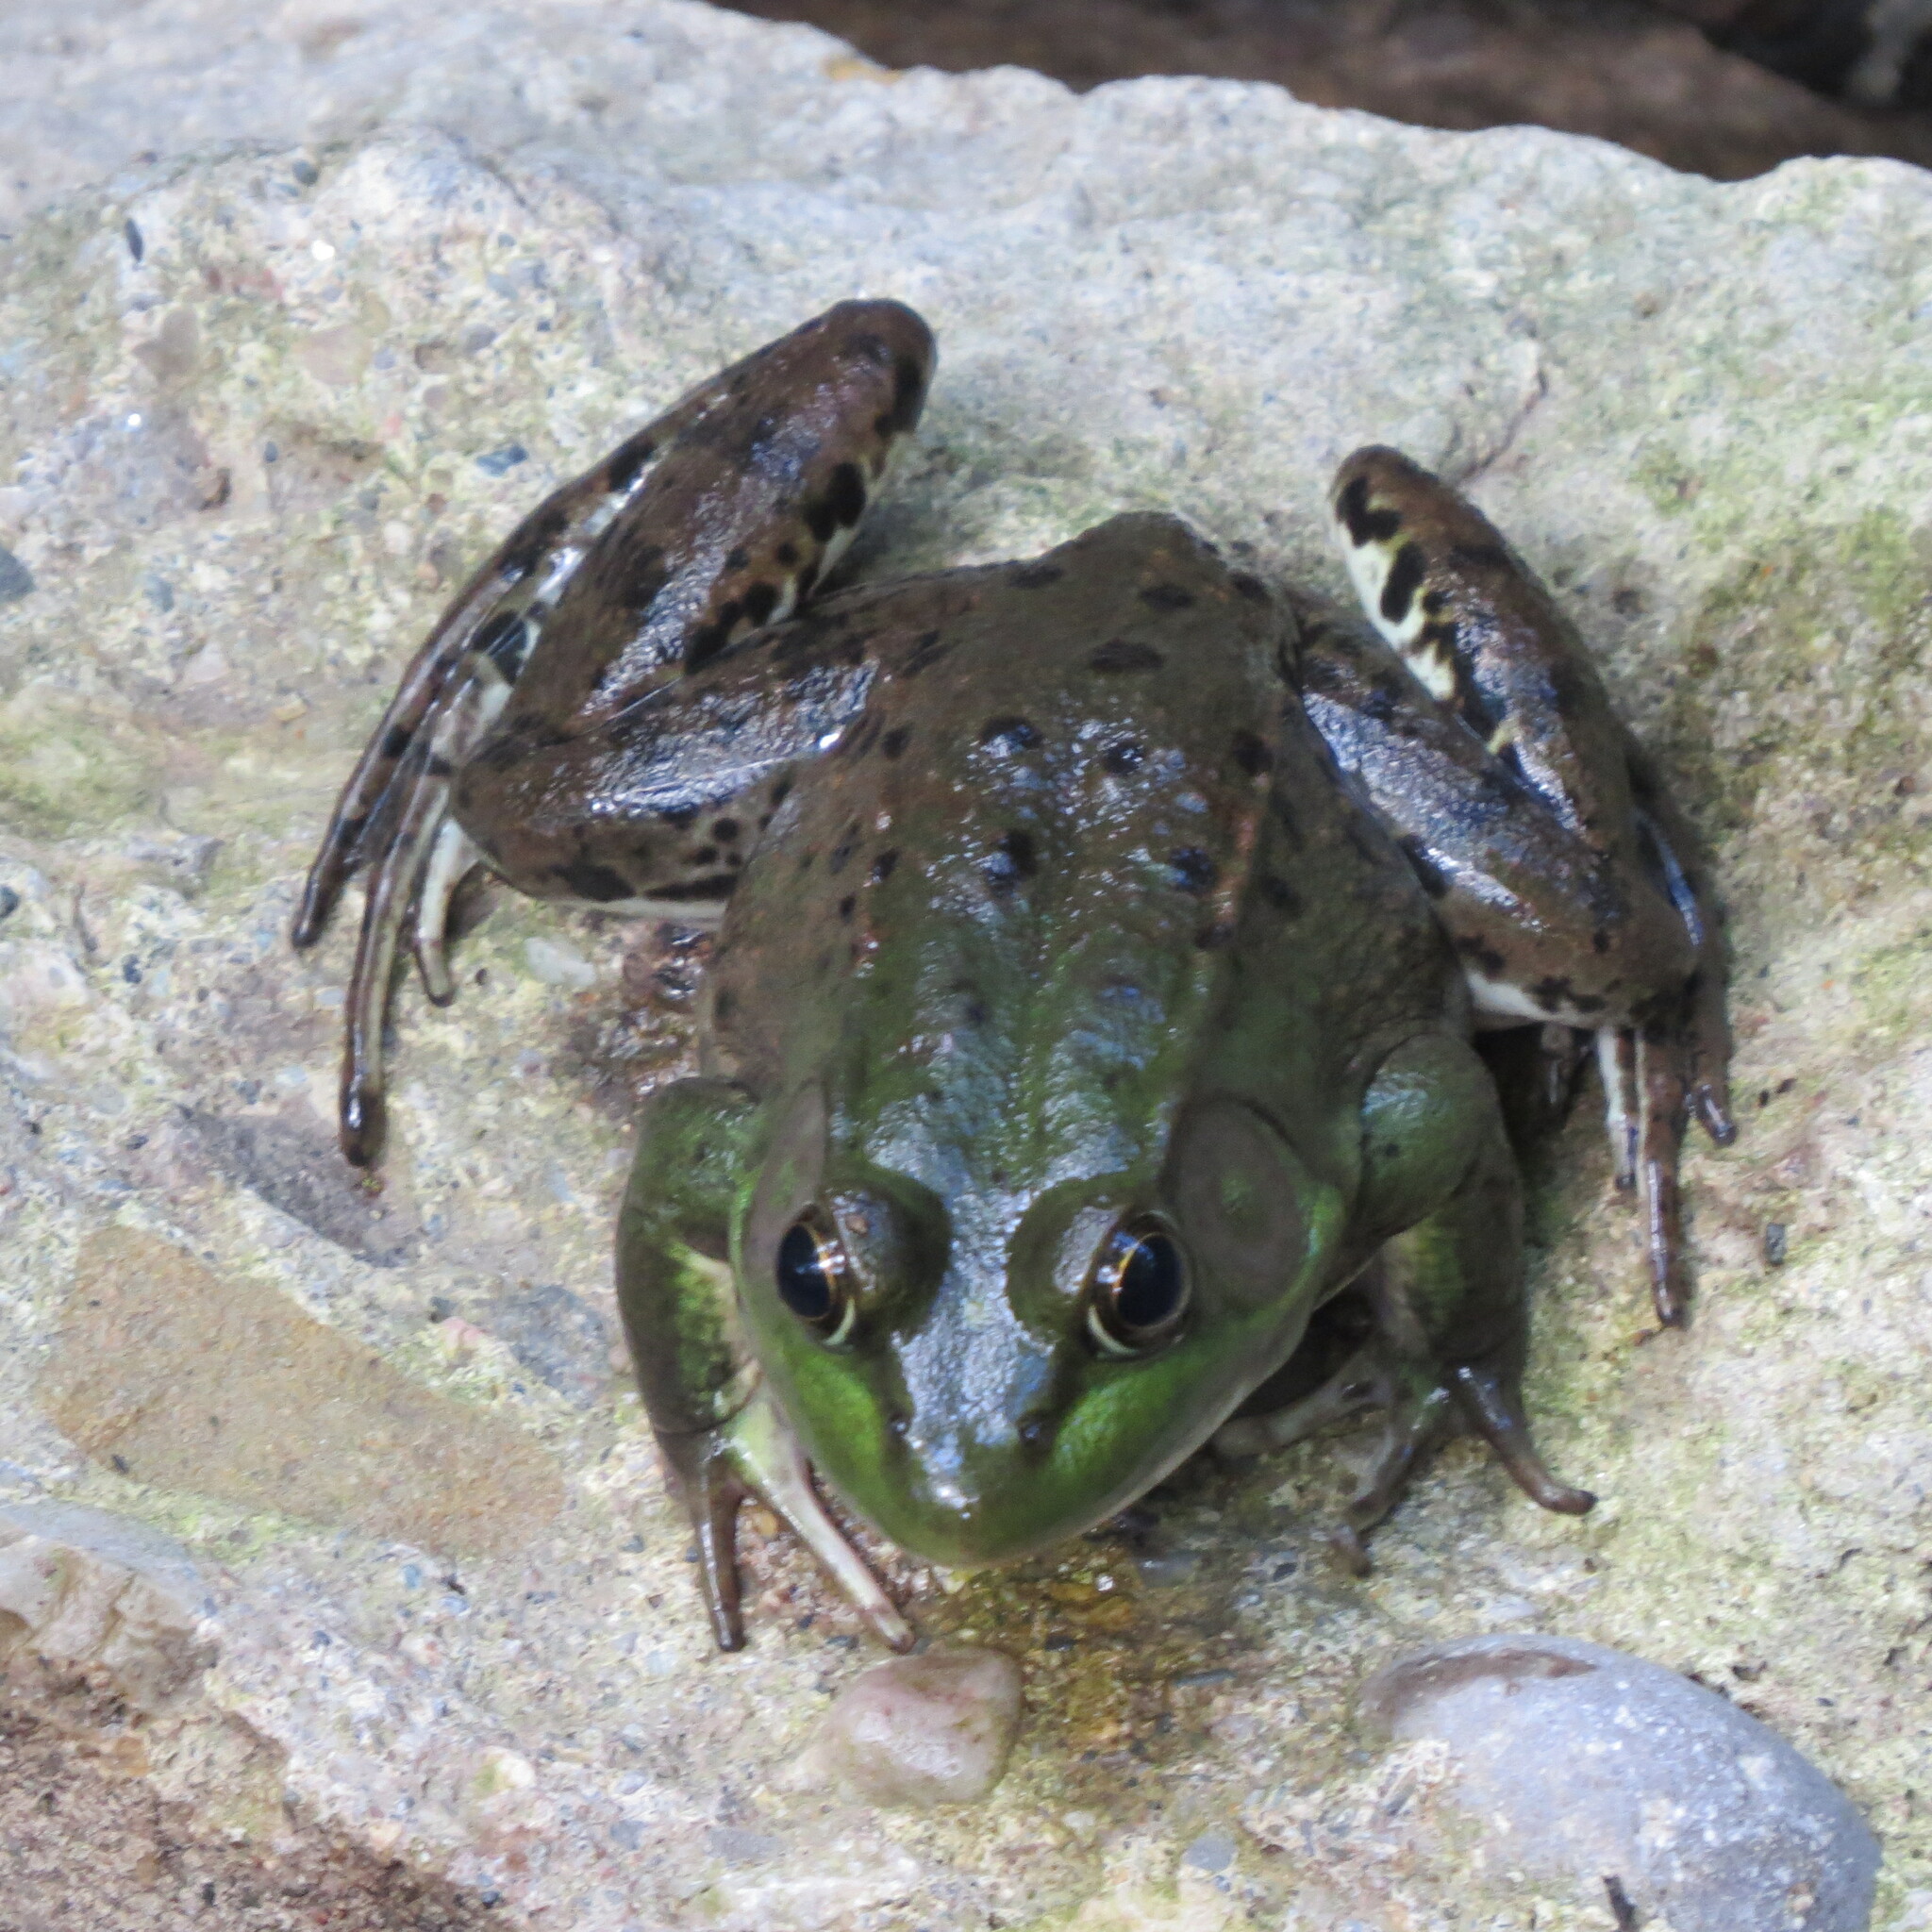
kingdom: Animalia
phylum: Chordata
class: Amphibia
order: Anura
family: Ranidae
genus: Lithobates
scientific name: Lithobates clamitans
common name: Green frog
